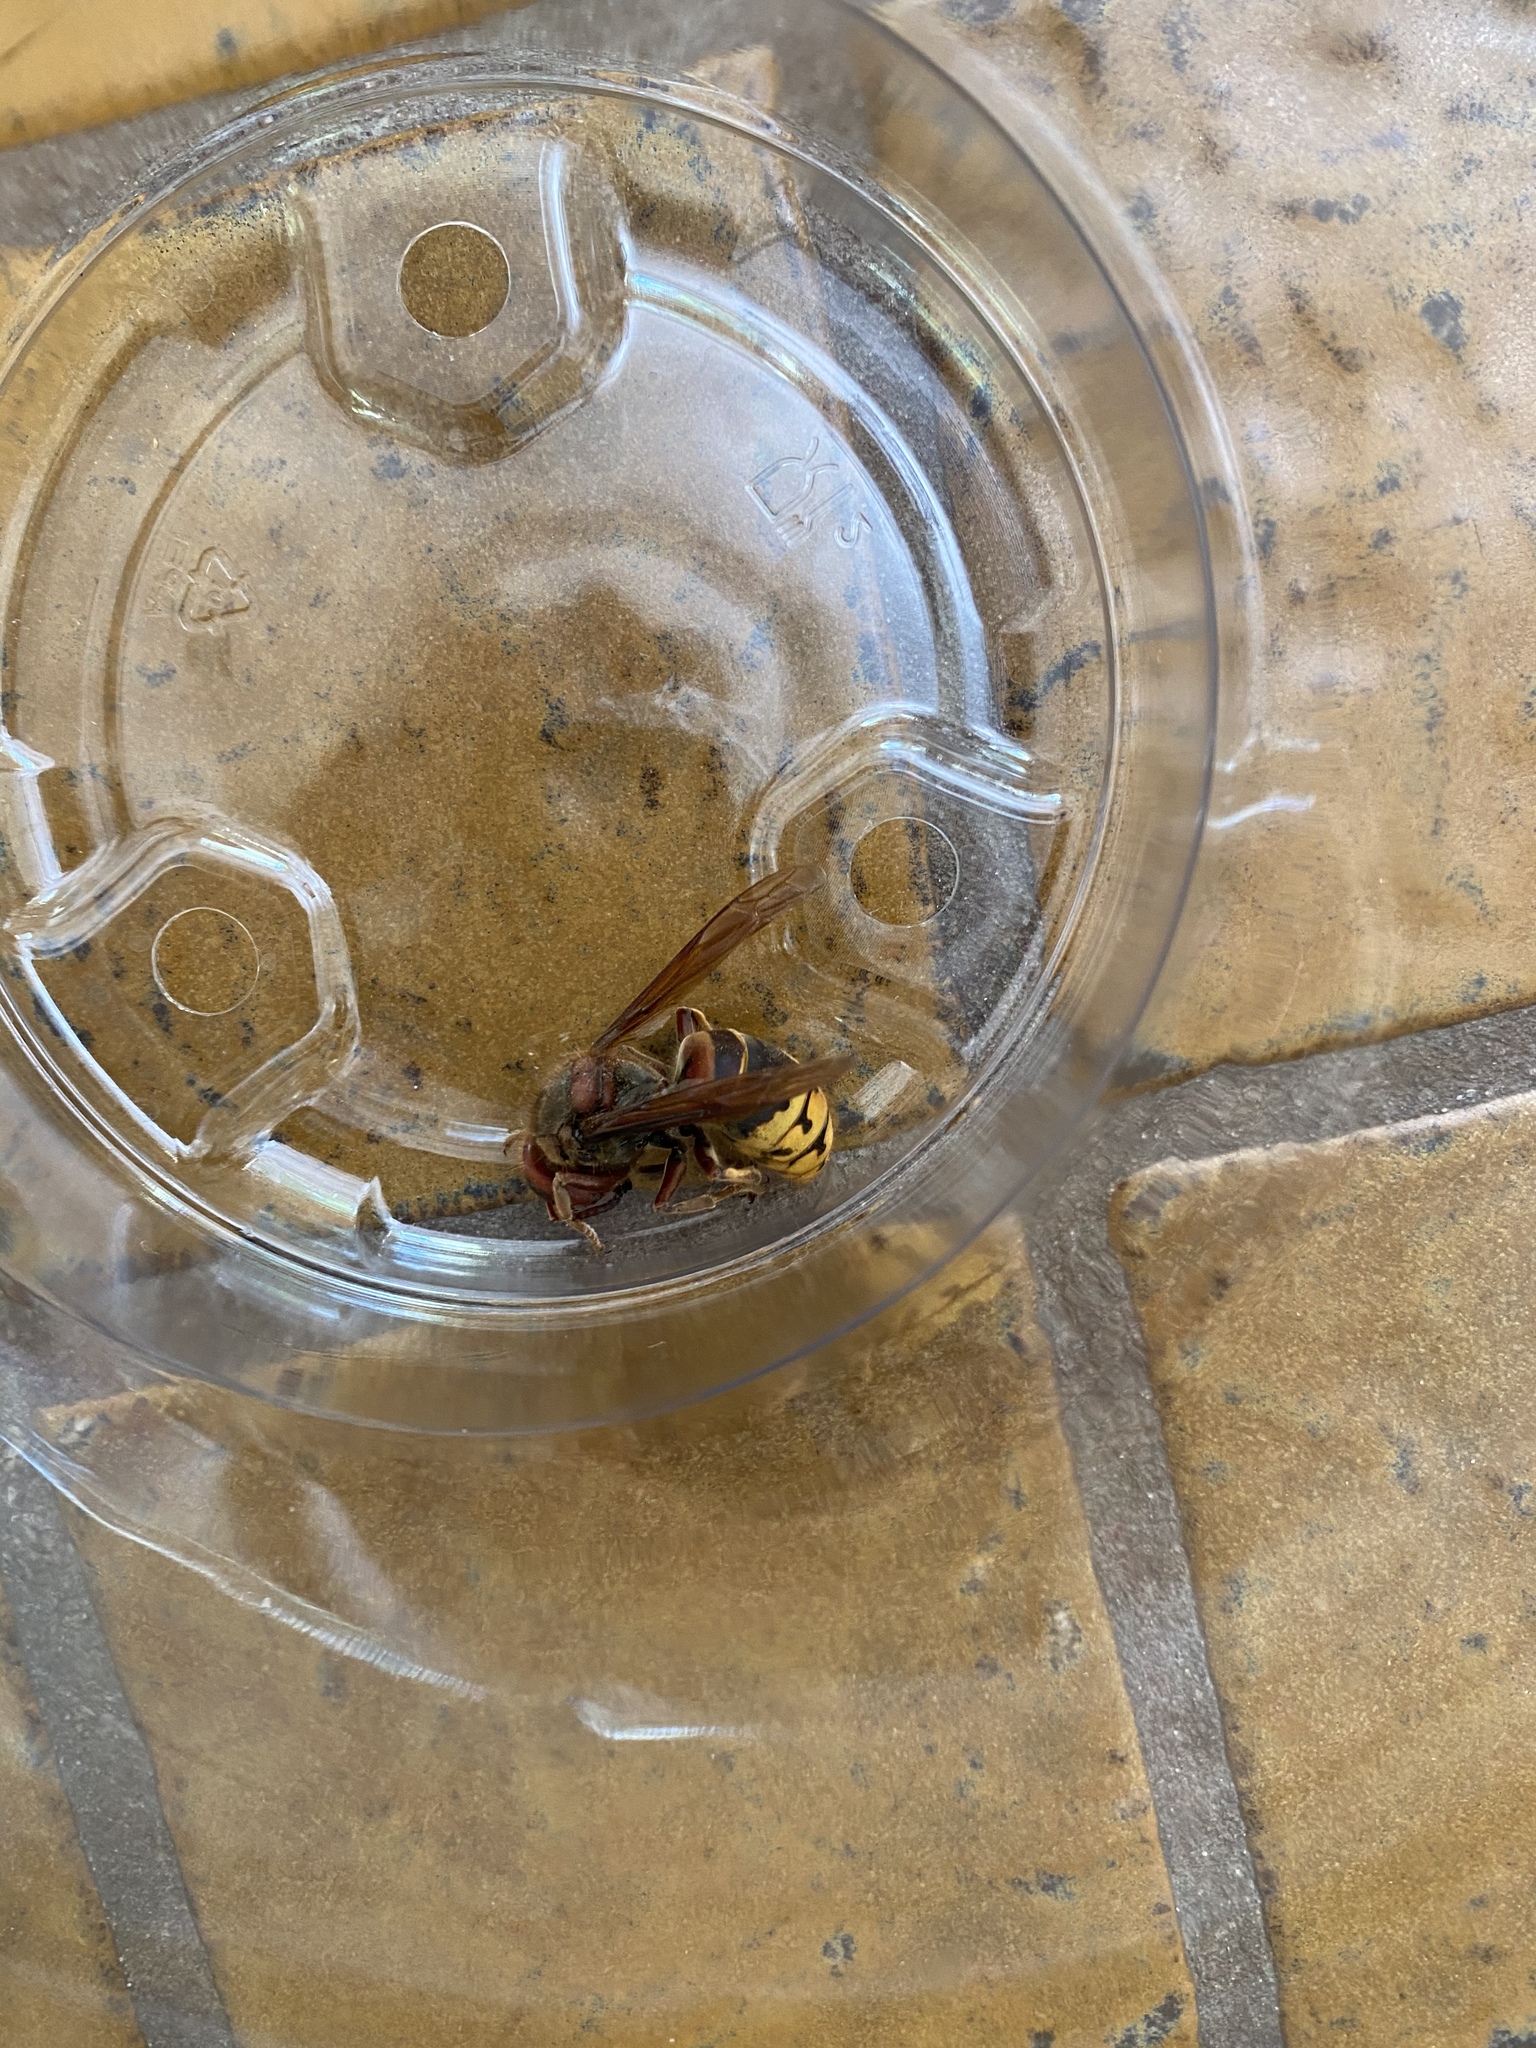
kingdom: Animalia
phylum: Arthropoda
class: Insecta
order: Hymenoptera
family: Vespidae
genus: Vespa
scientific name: Vespa crabro
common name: Hornet
